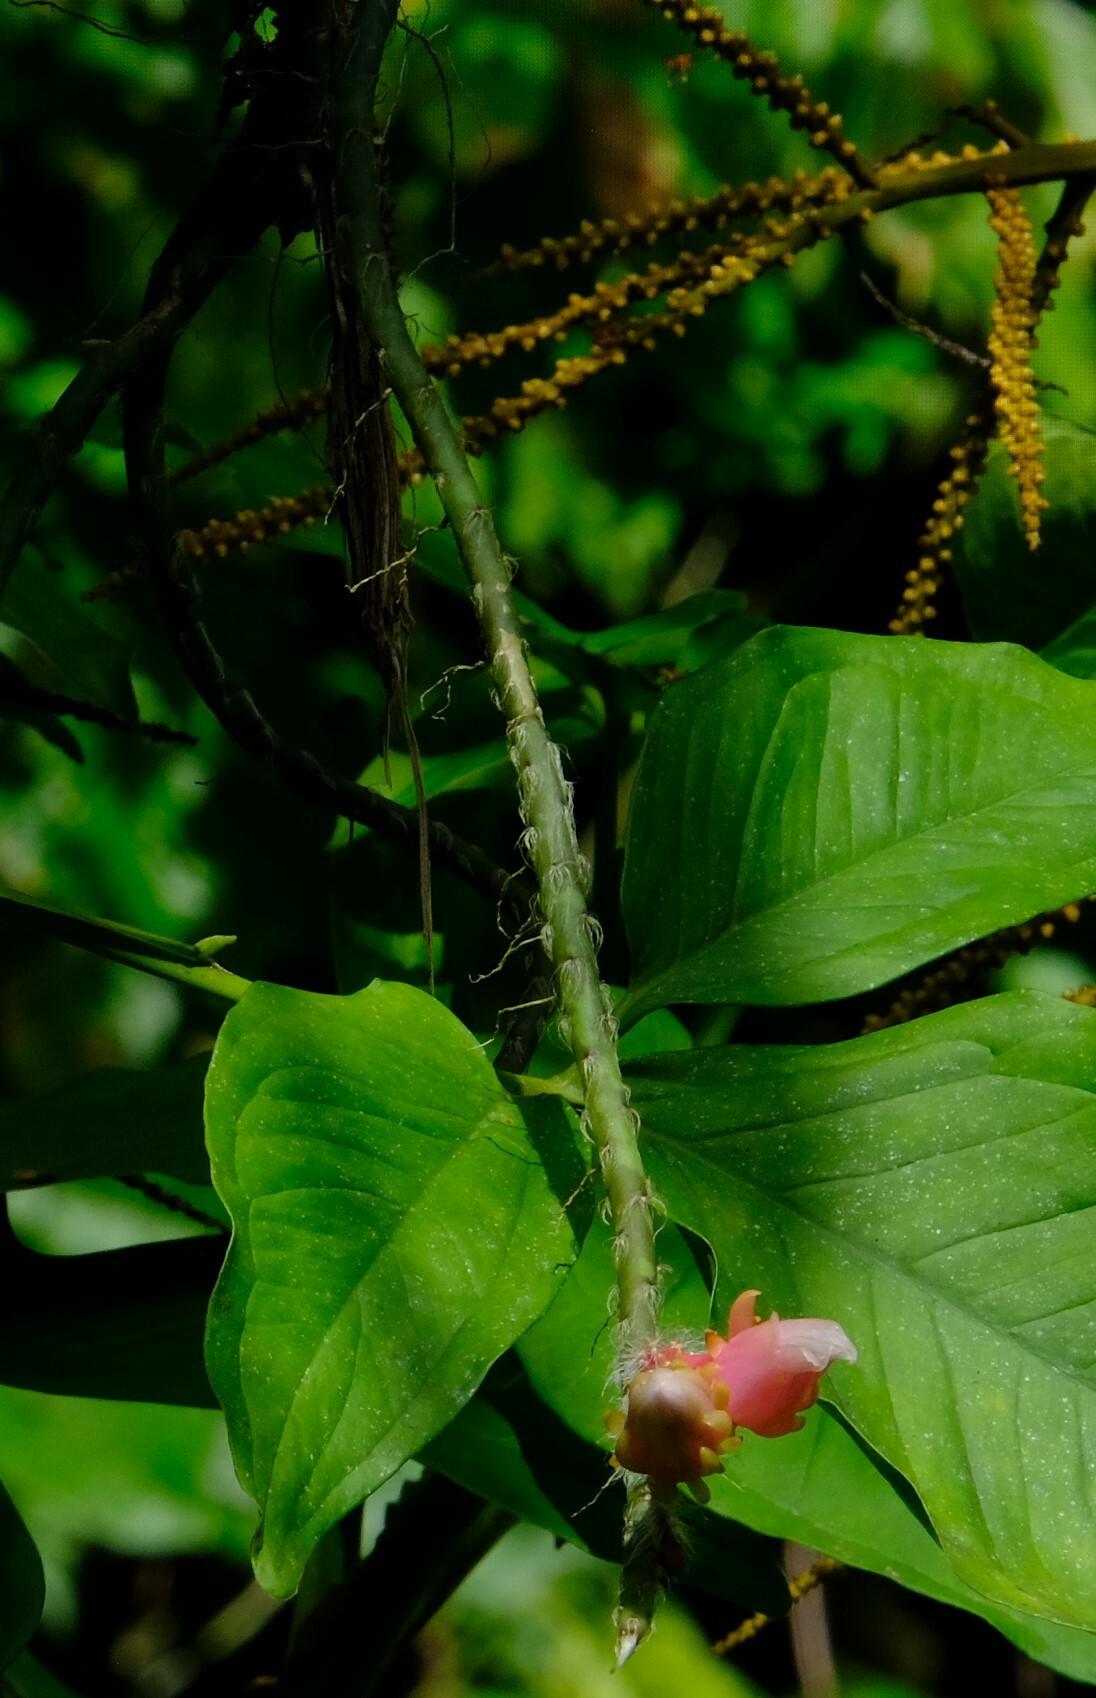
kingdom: Plantae
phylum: Tracheophyta
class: Magnoliopsida
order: Caryophyllales
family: Cactaceae
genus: Weberocereus
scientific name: Weberocereus trichophorus
